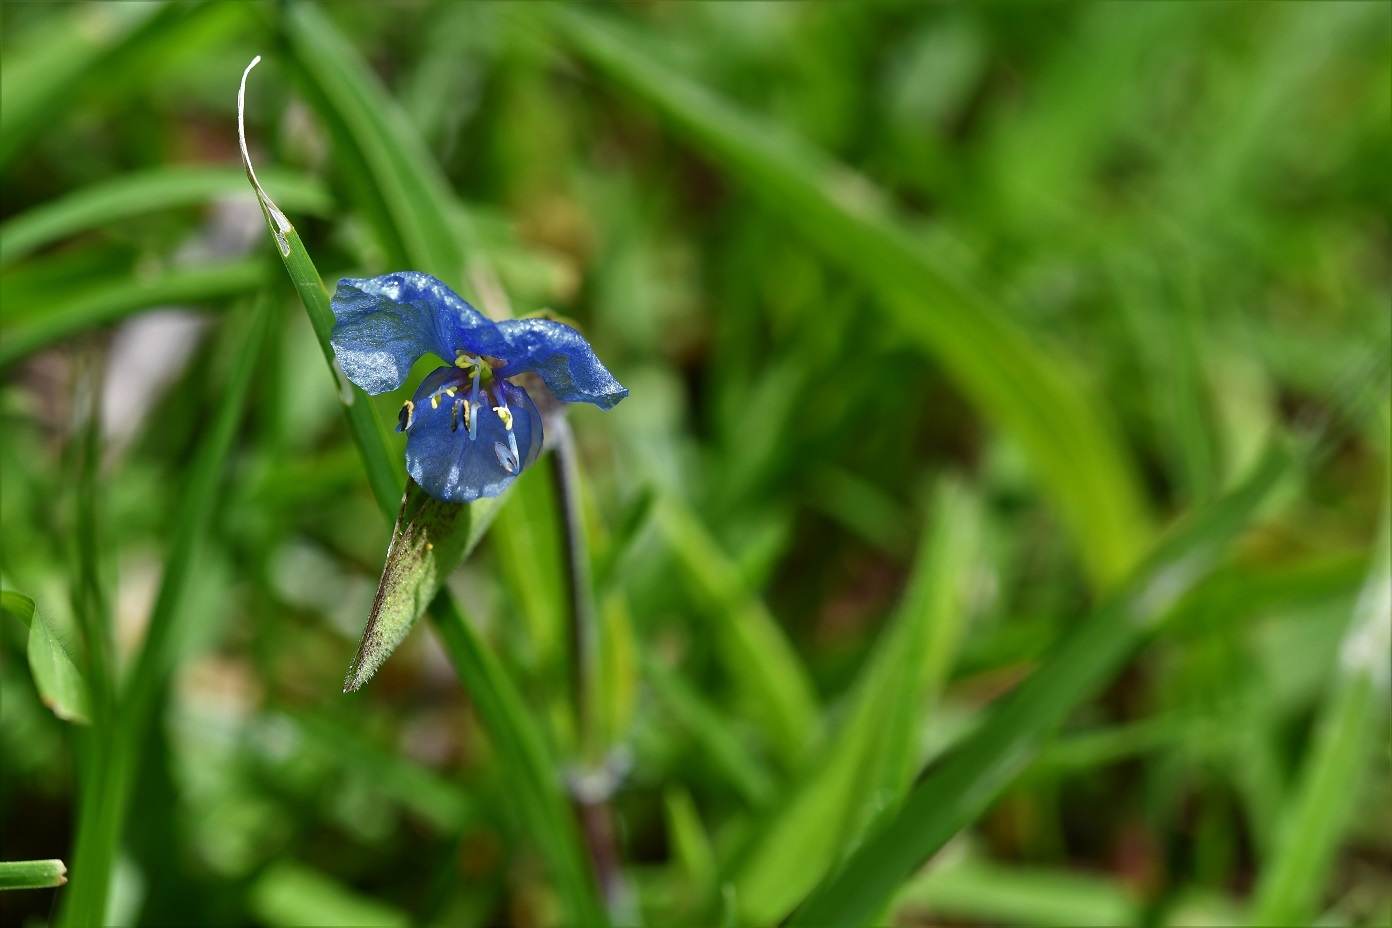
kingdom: Plantae
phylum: Tracheophyta
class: Liliopsida
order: Commelinales
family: Commelinaceae
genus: Commelina
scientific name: Commelina tuberosa
